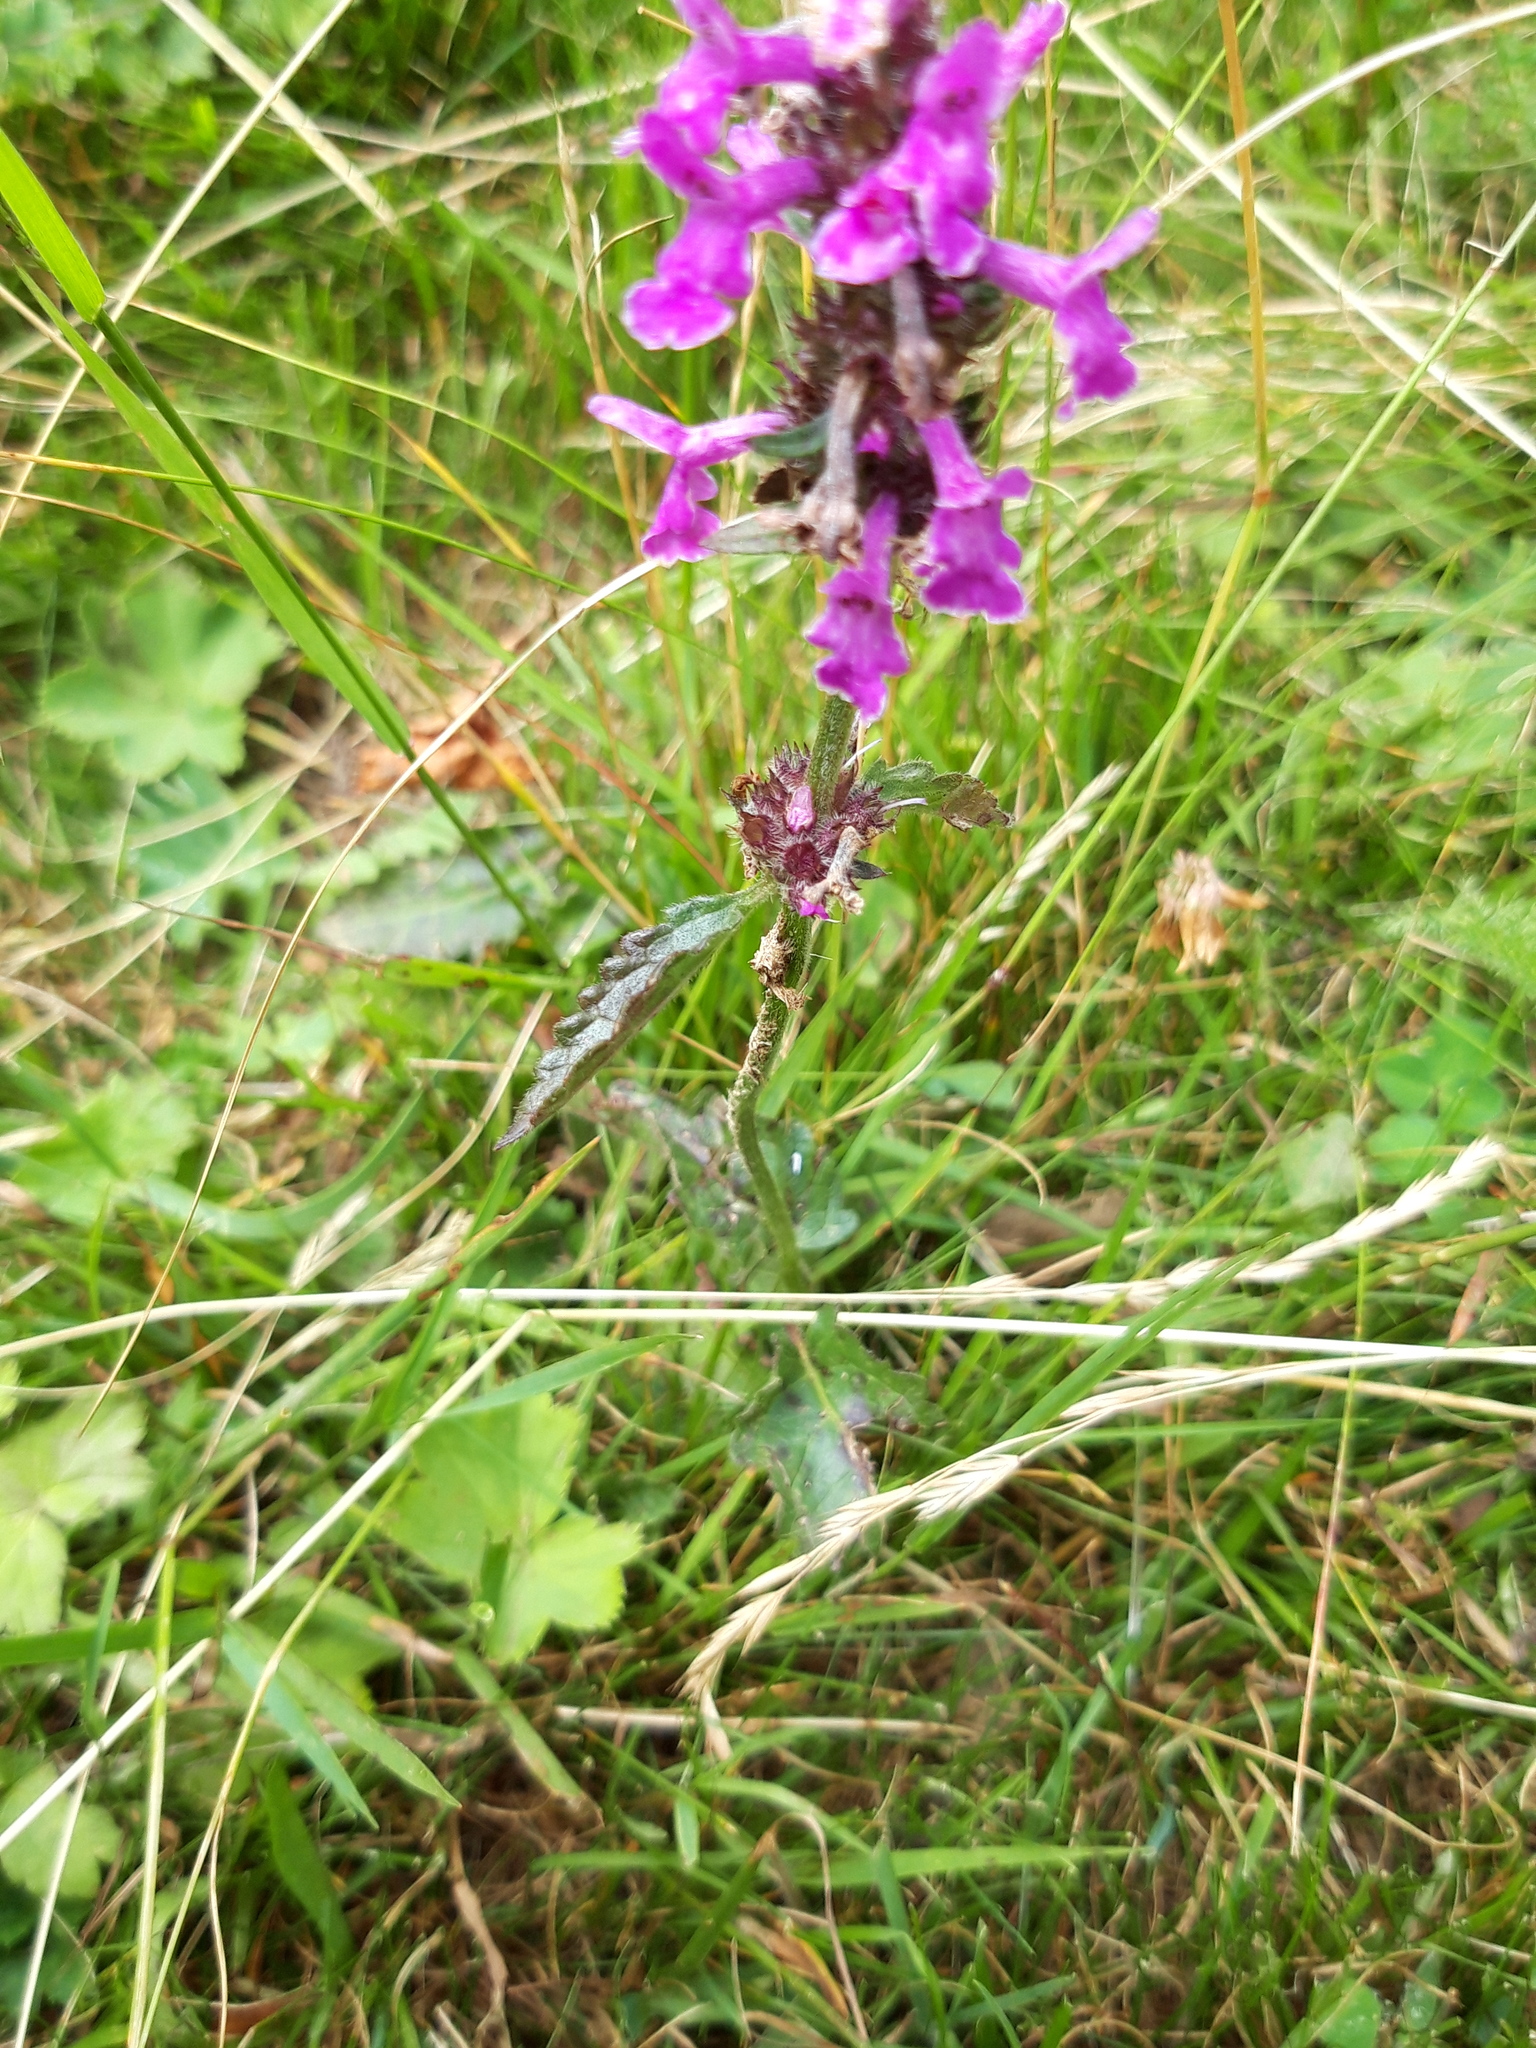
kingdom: Plantae
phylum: Tracheophyta
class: Magnoliopsida
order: Lamiales
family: Lamiaceae
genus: Betonica
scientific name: Betonica officinalis
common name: Bishop's-wort
